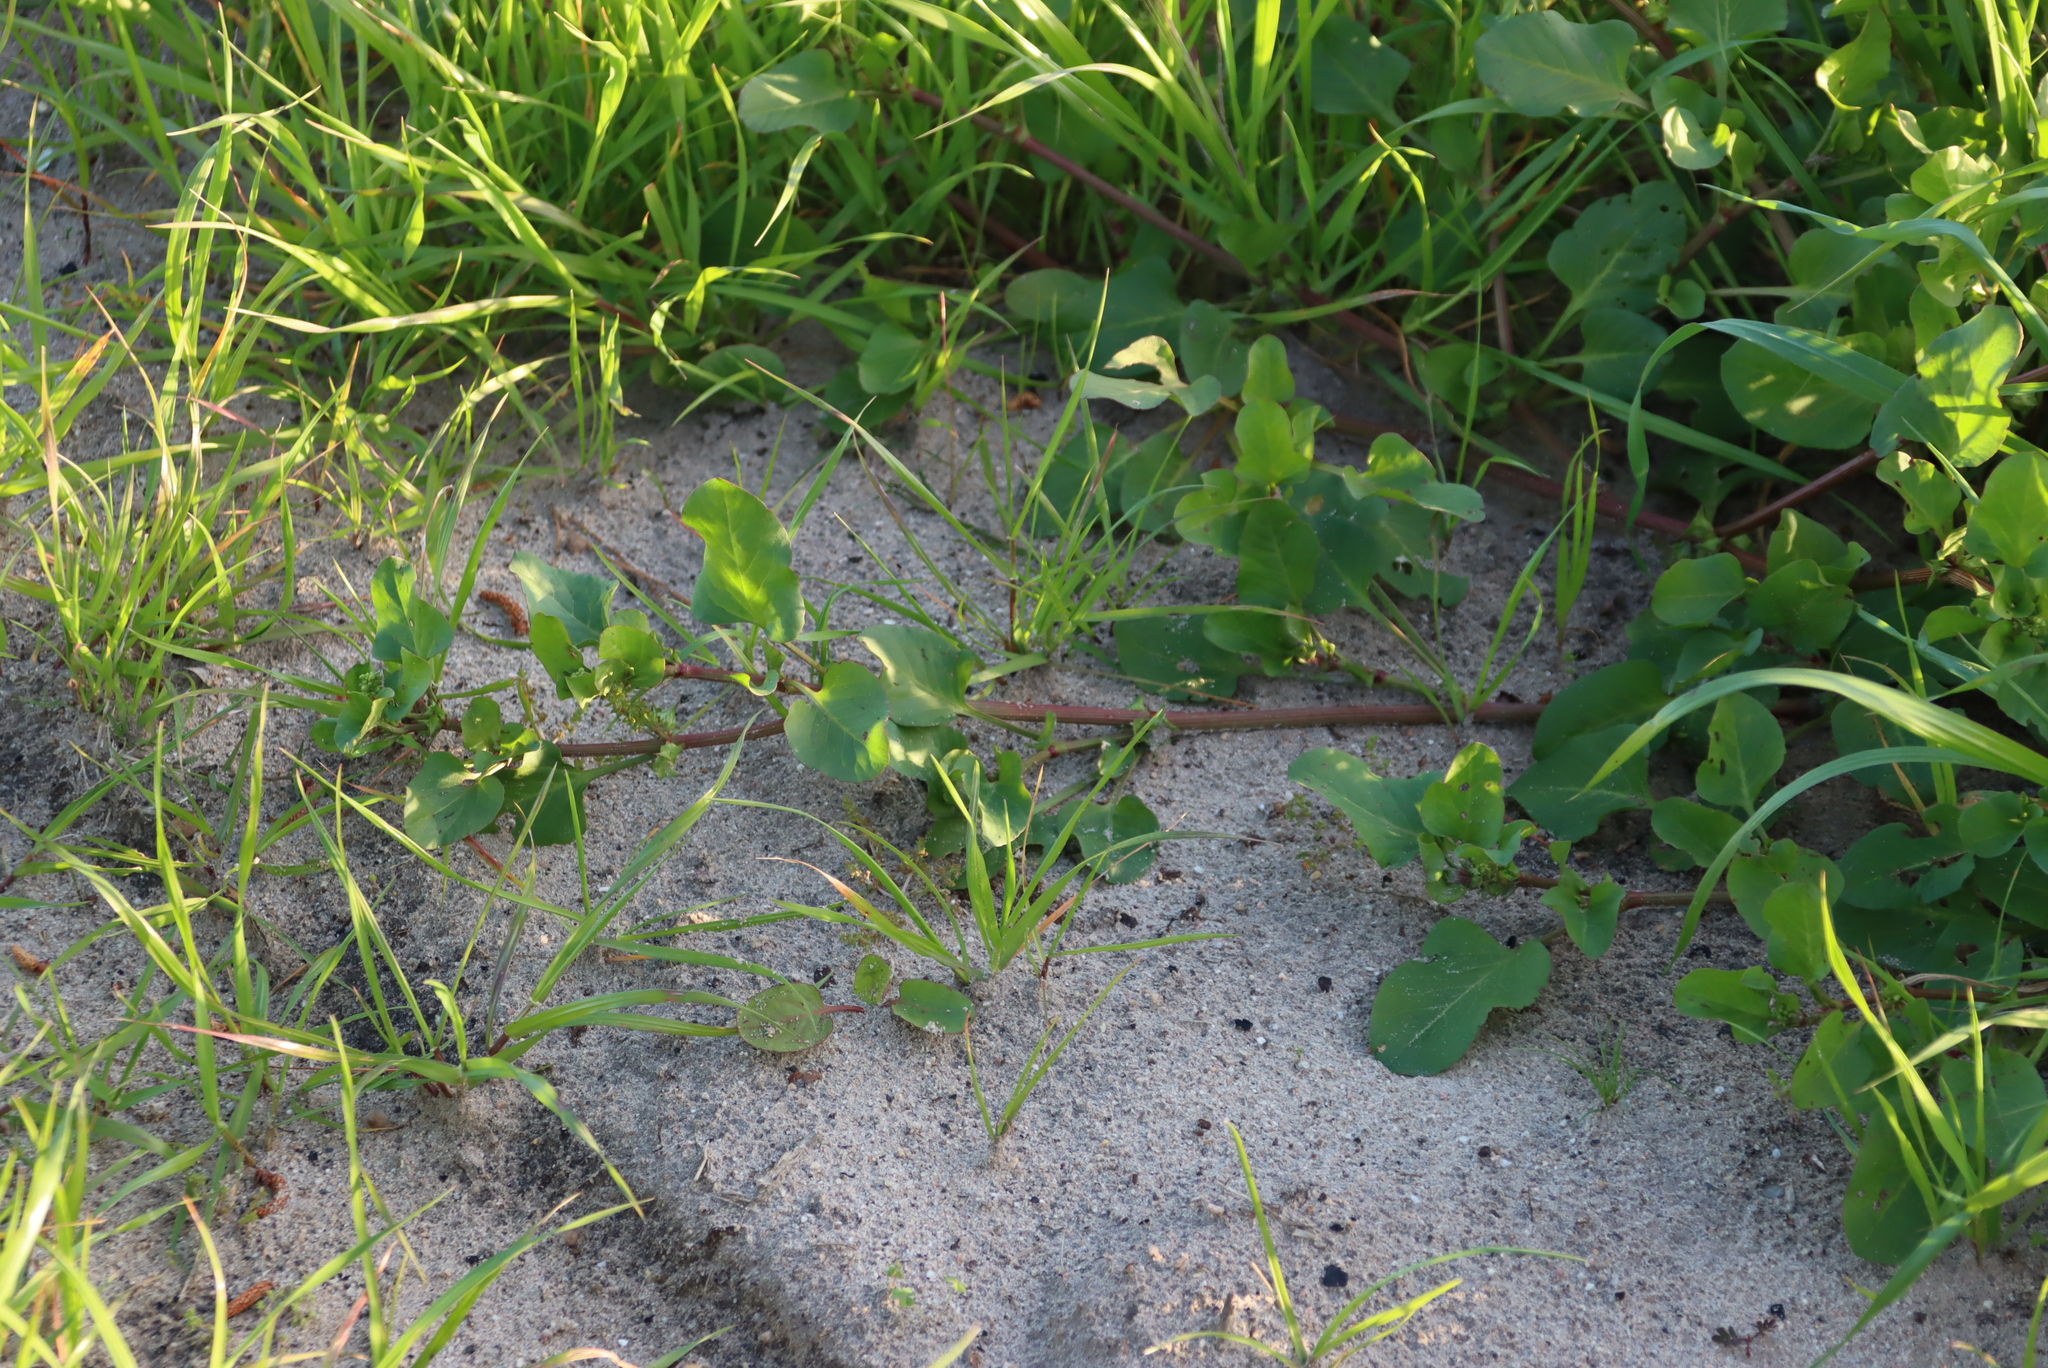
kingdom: Plantae
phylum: Tracheophyta
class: Magnoliopsida
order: Caryophyllales
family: Polygonaceae
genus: Rumex
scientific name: Rumex hypogaeus
